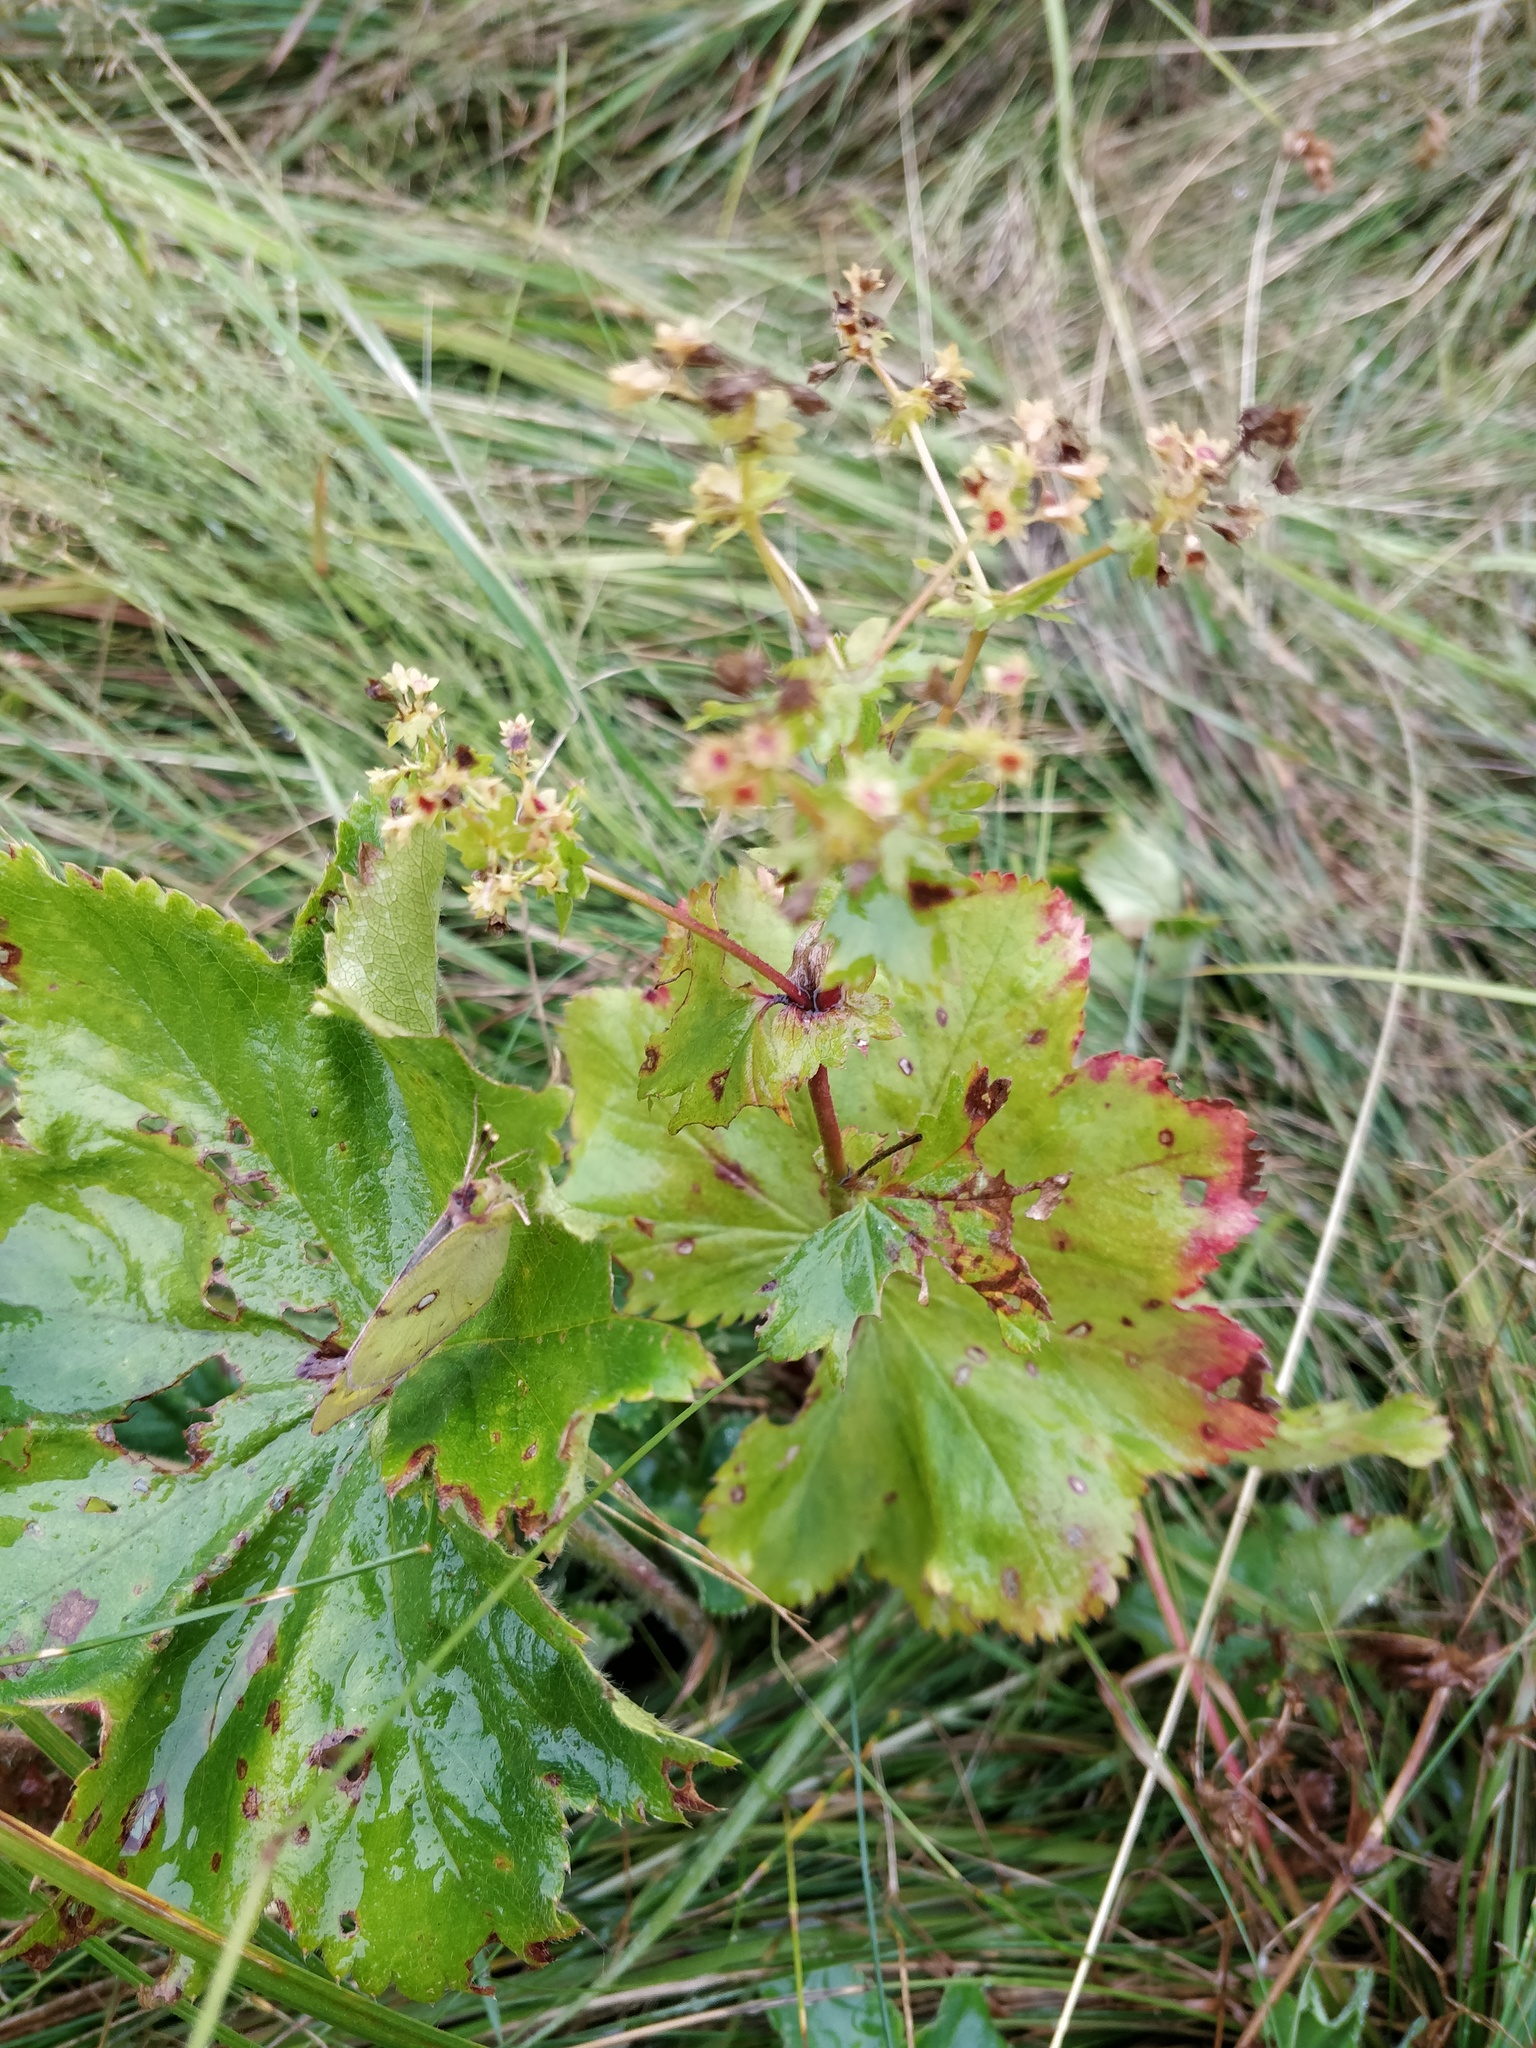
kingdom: Plantae
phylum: Tracheophyta
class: Magnoliopsida
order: Rosales
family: Rosaceae
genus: Alchemilla
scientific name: Alchemilla cymatophylla
